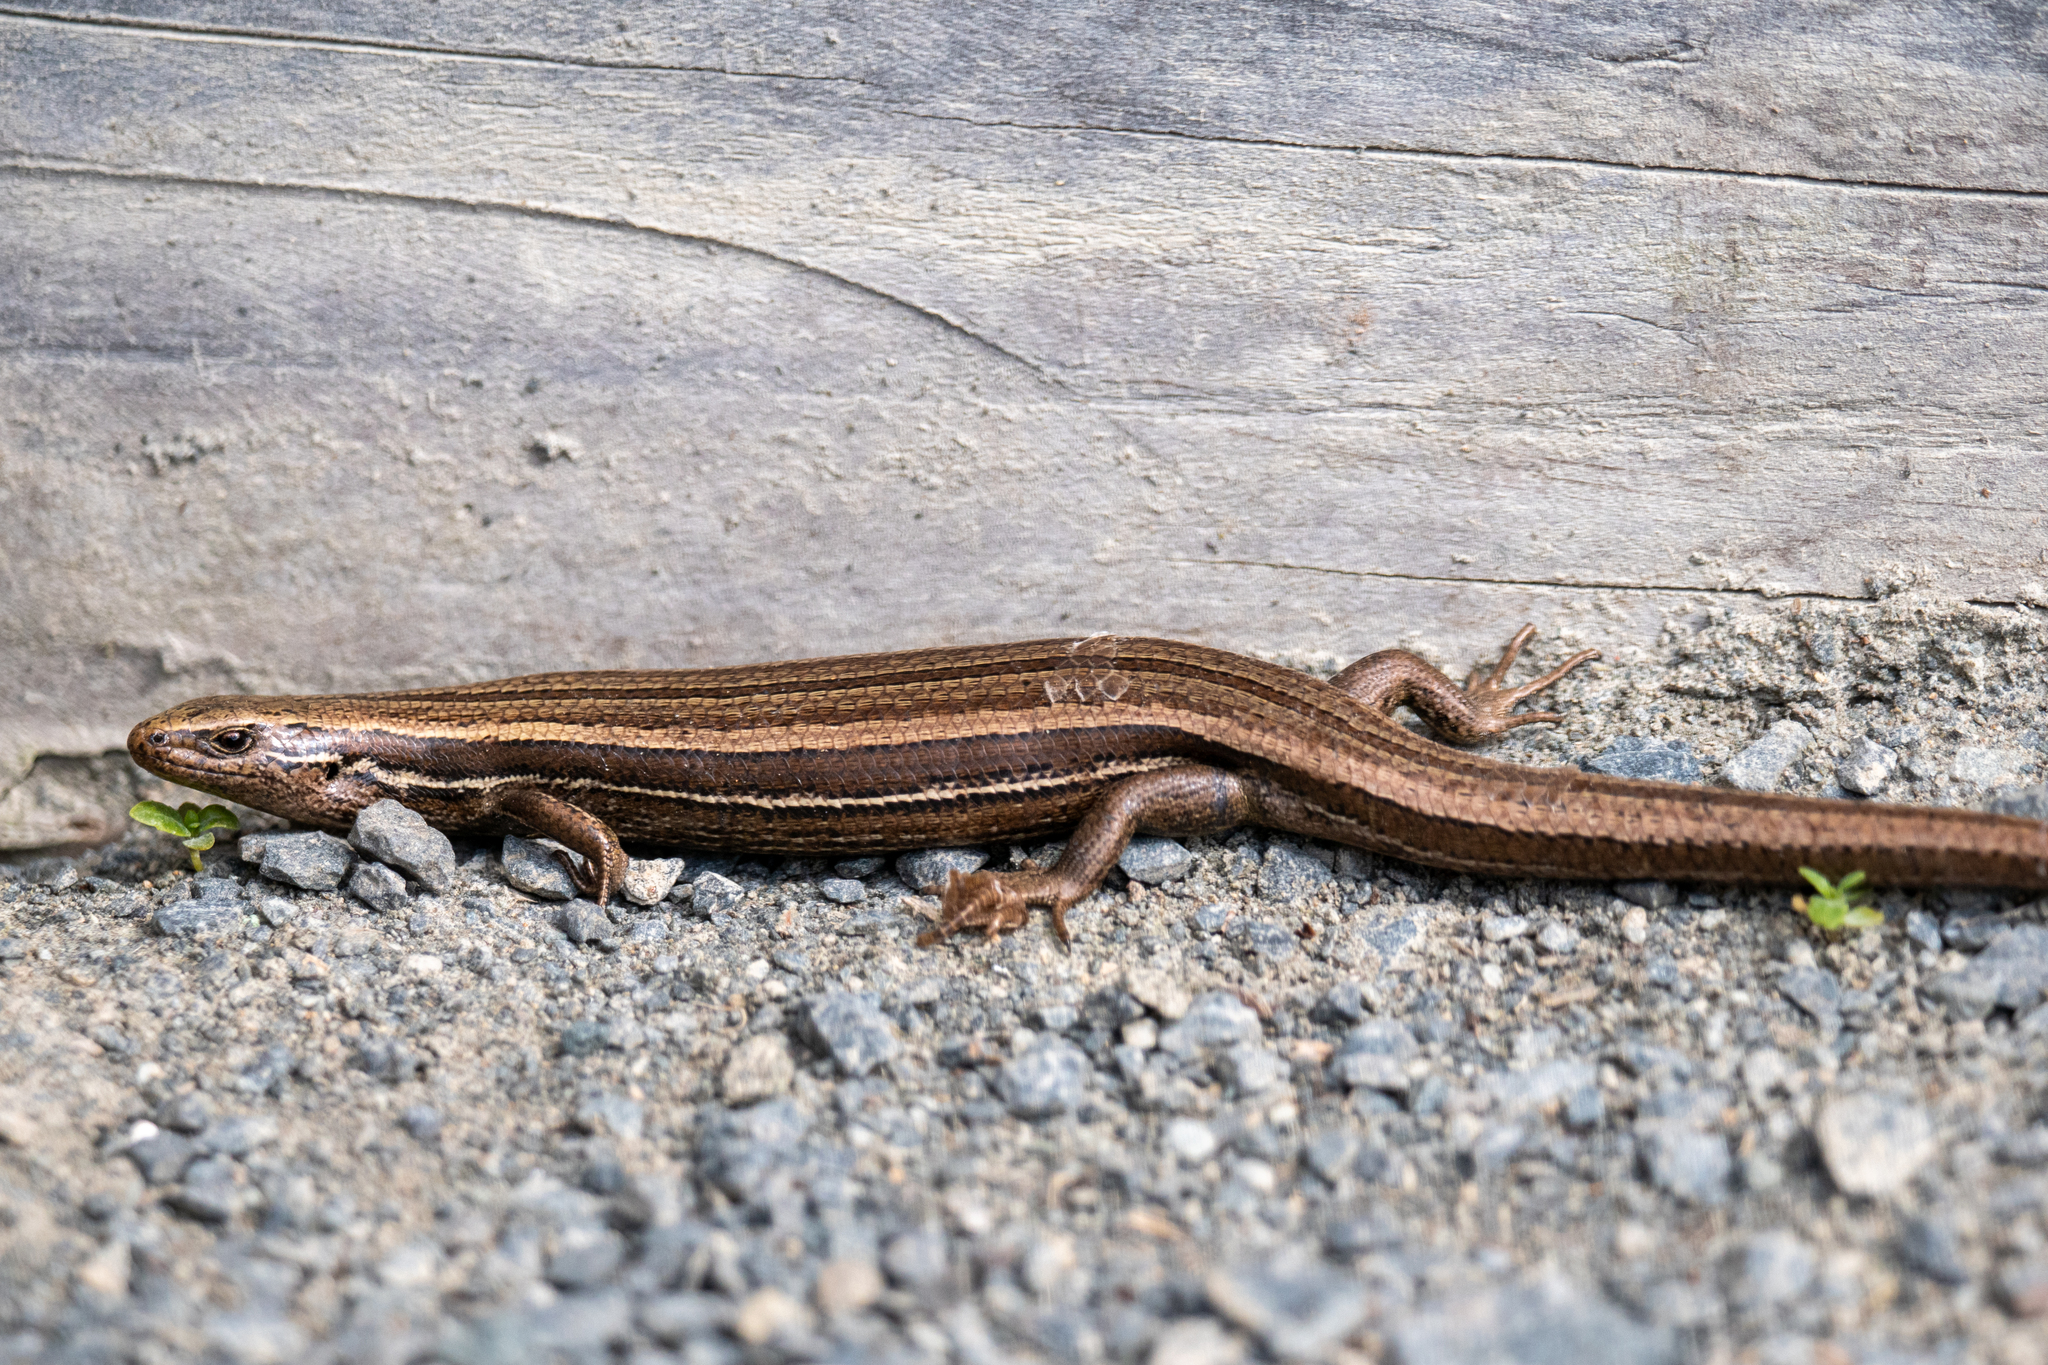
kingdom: Animalia
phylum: Chordata
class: Squamata
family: Scincidae
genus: Oligosoma
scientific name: Oligosoma polychroma
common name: Common new zealand skink
